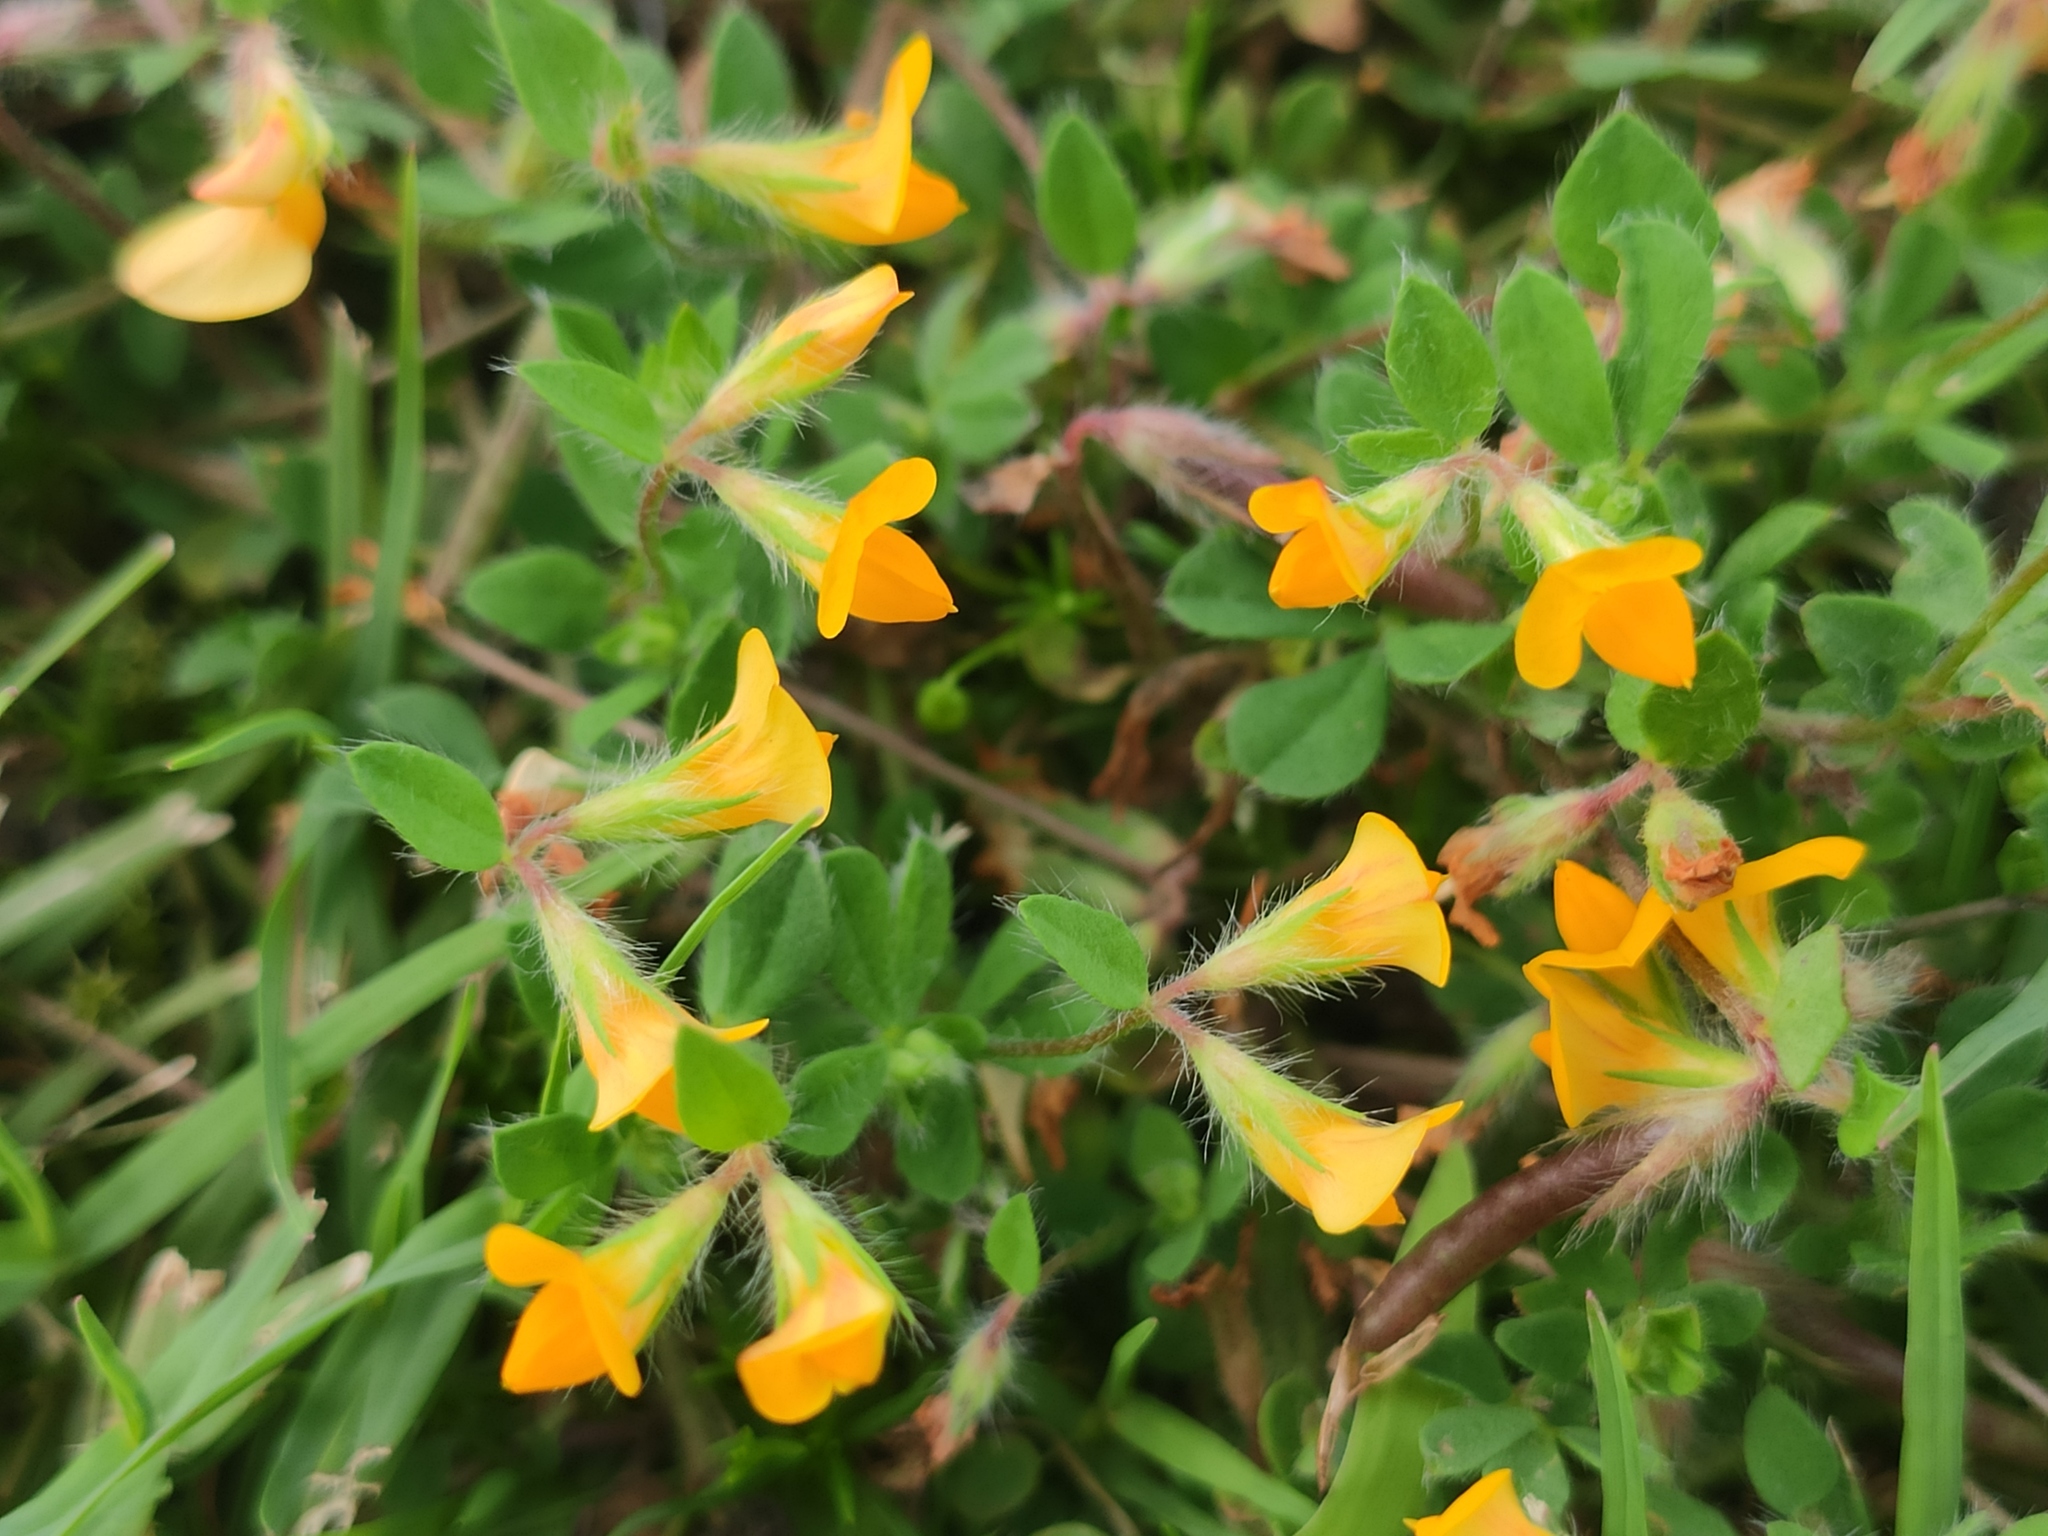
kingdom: Plantae
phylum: Tracheophyta
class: Magnoliopsida
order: Fabales
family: Fabaceae
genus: Lotus
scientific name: Lotus hispidus
